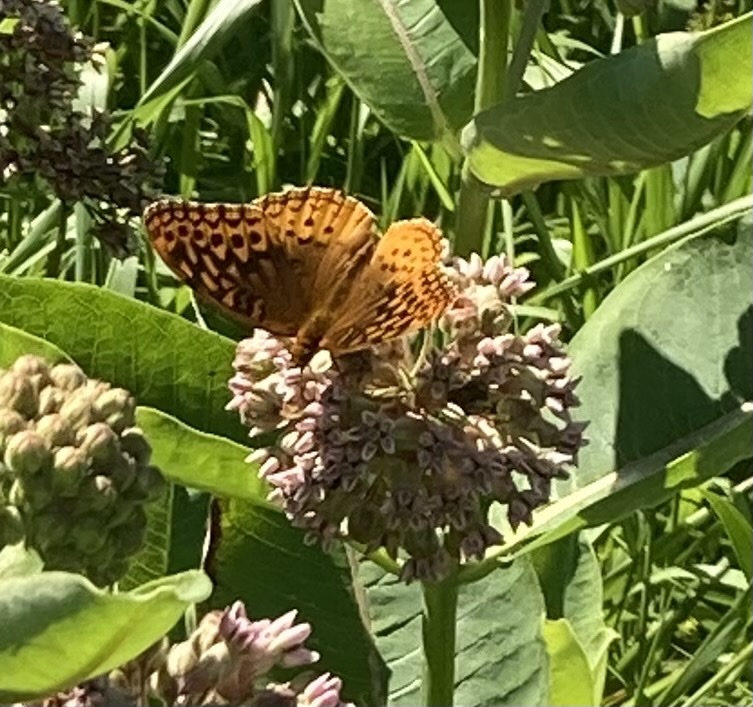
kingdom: Animalia
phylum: Arthropoda
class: Insecta
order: Lepidoptera
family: Nymphalidae
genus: Speyeria
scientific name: Speyeria cybele
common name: Great spangled fritillary
